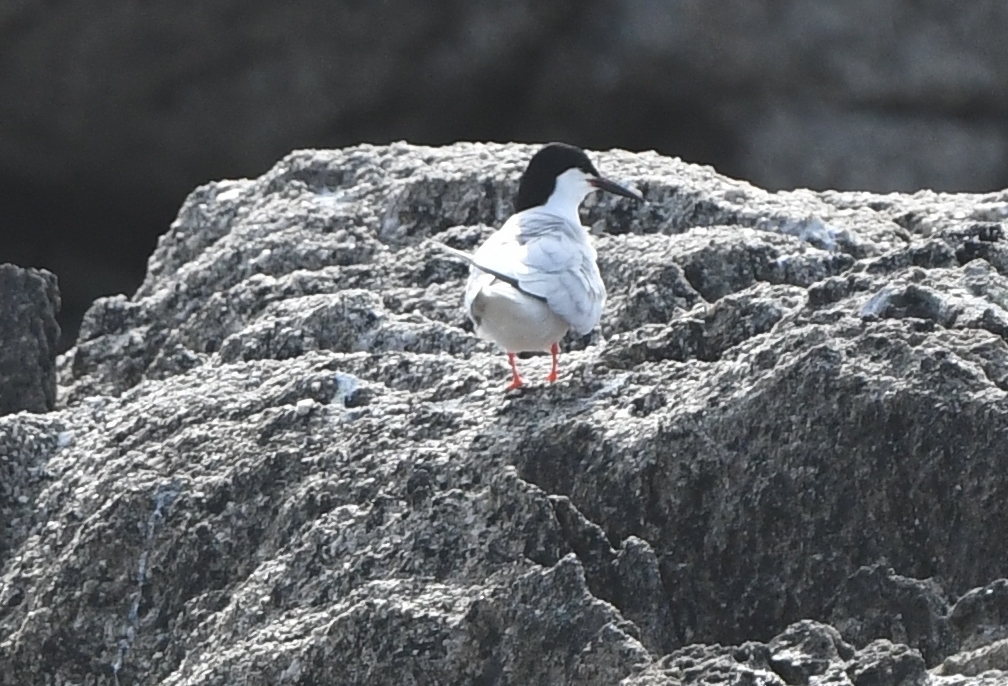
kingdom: Animalia
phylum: Chordata
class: Aves
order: Charadriiformes
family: Laridae
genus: Sterna
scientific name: Sterna dougallii
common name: Roseate tern
